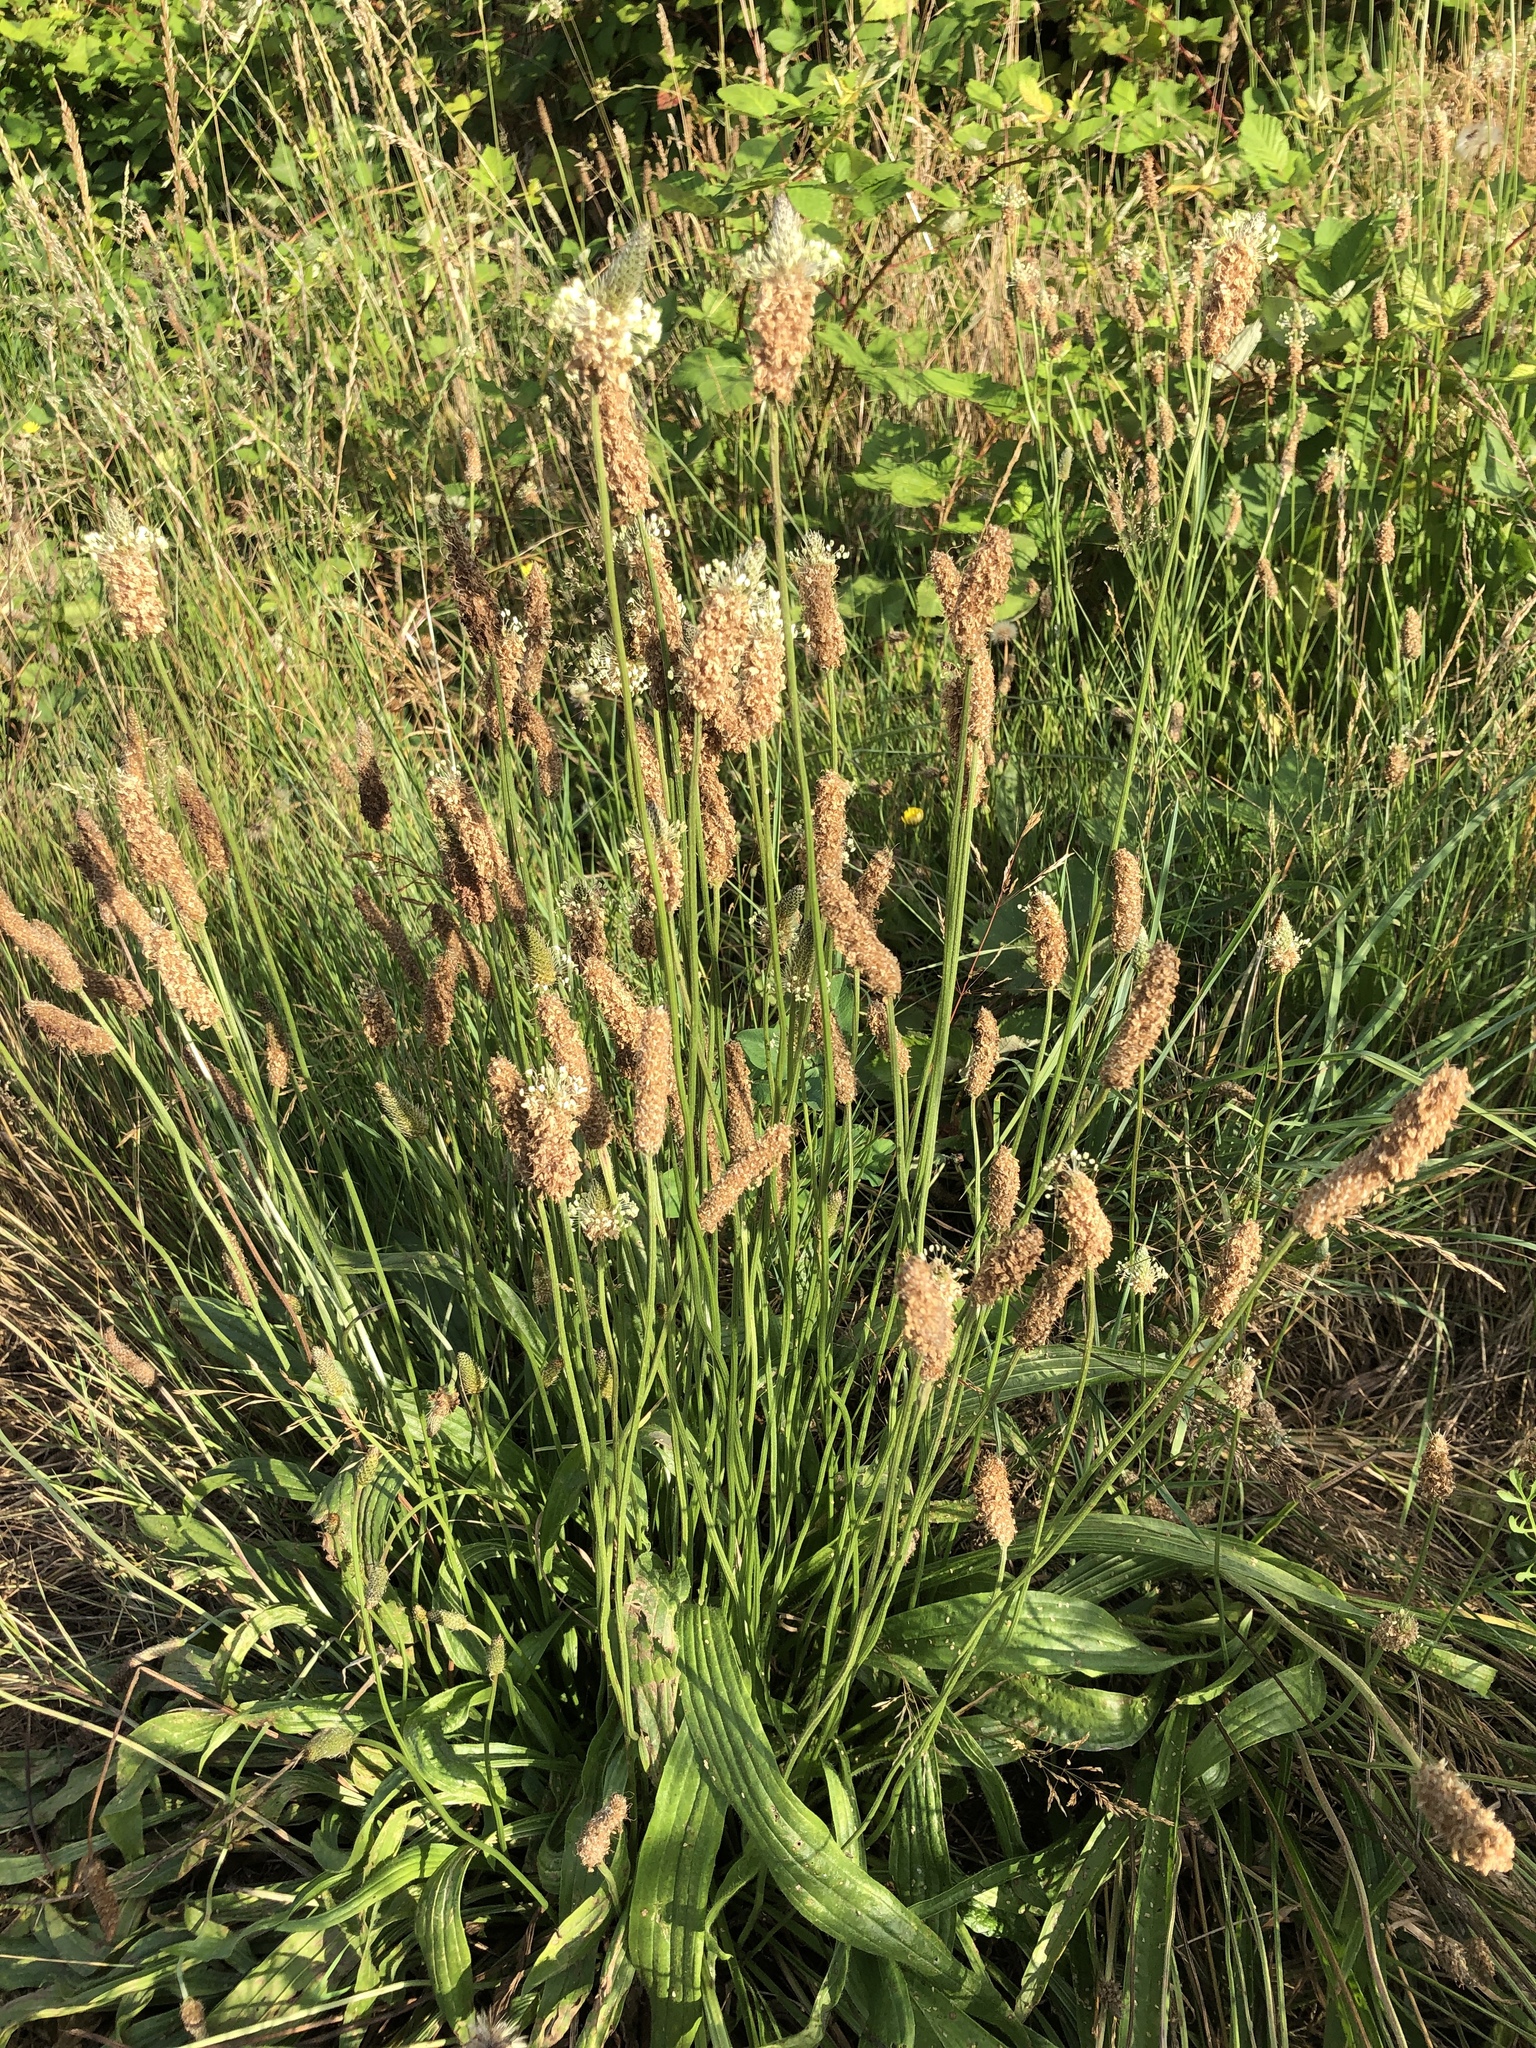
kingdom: Plantae
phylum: Tracheophyta
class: Magnoliopsida
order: Lamiales
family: Plantaginaceae
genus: Plantago
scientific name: Plantago lanceolata
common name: Ribwort plantain
